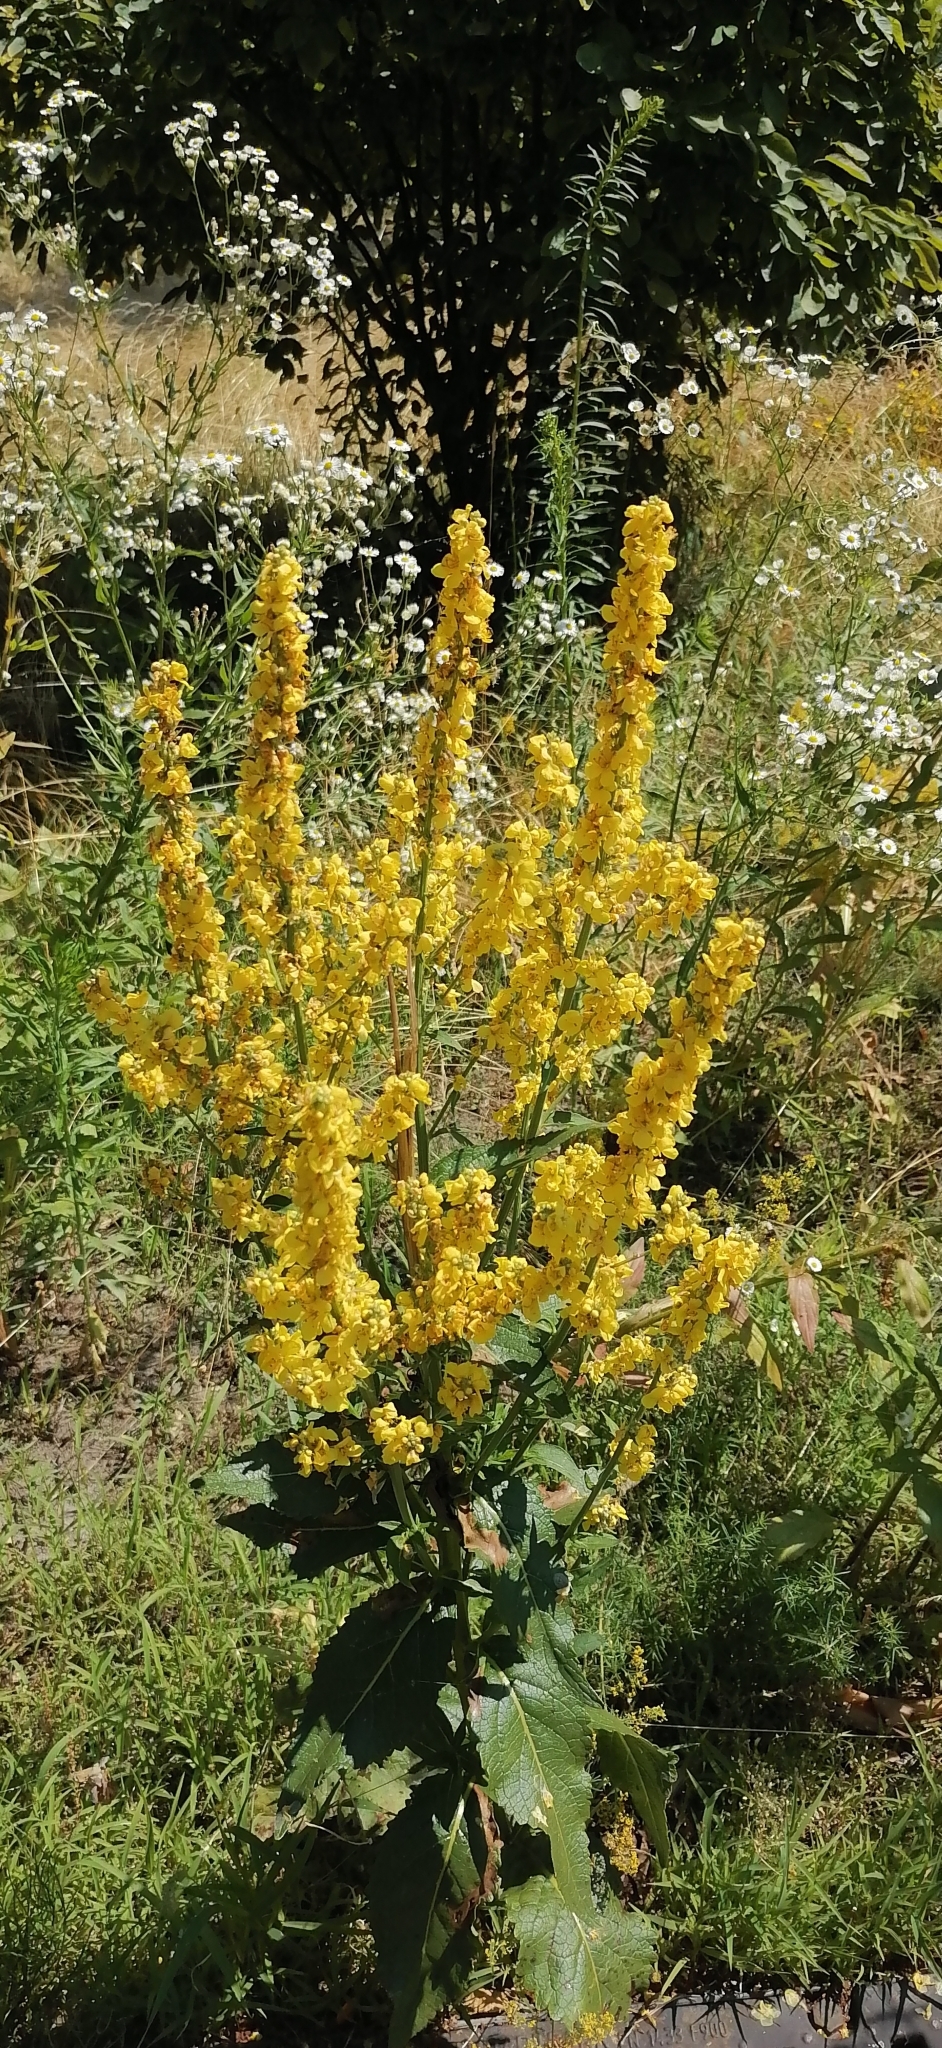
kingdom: Plantae
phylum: Tracheophyta
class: Magnoliopsida
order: Lamiales
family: Scrophulariaceae
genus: Verbascum
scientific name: Verbascum lychnitis
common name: White mullein
